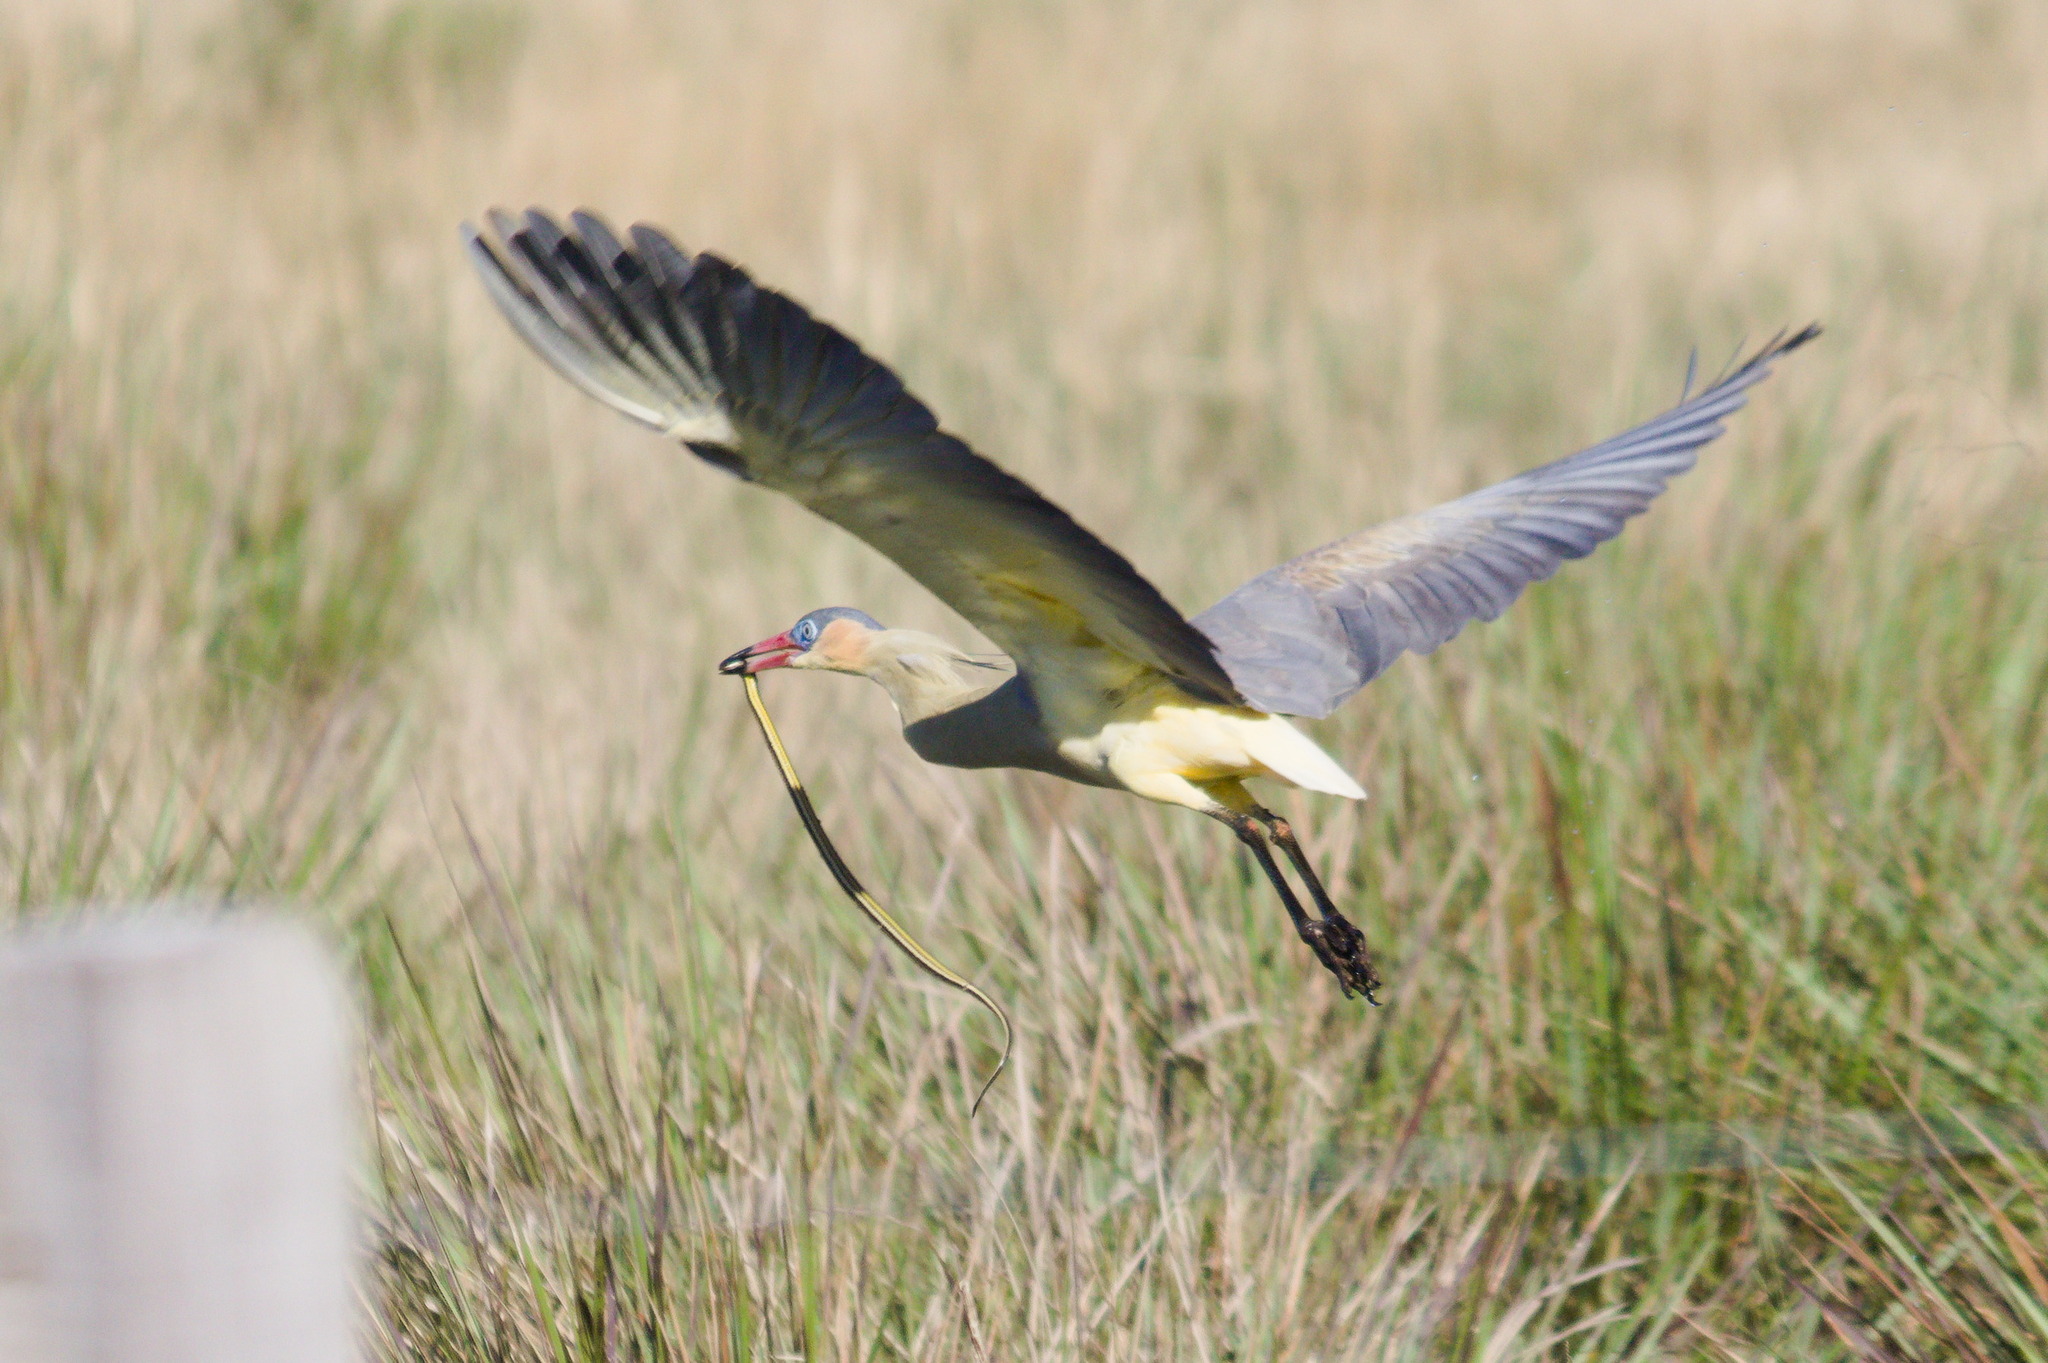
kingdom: Animalia
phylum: Chordata
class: Aves
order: Pelecaniformes
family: Ardeidae
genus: Syrigma
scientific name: Syrigma sibilatrix
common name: Whistling heron
